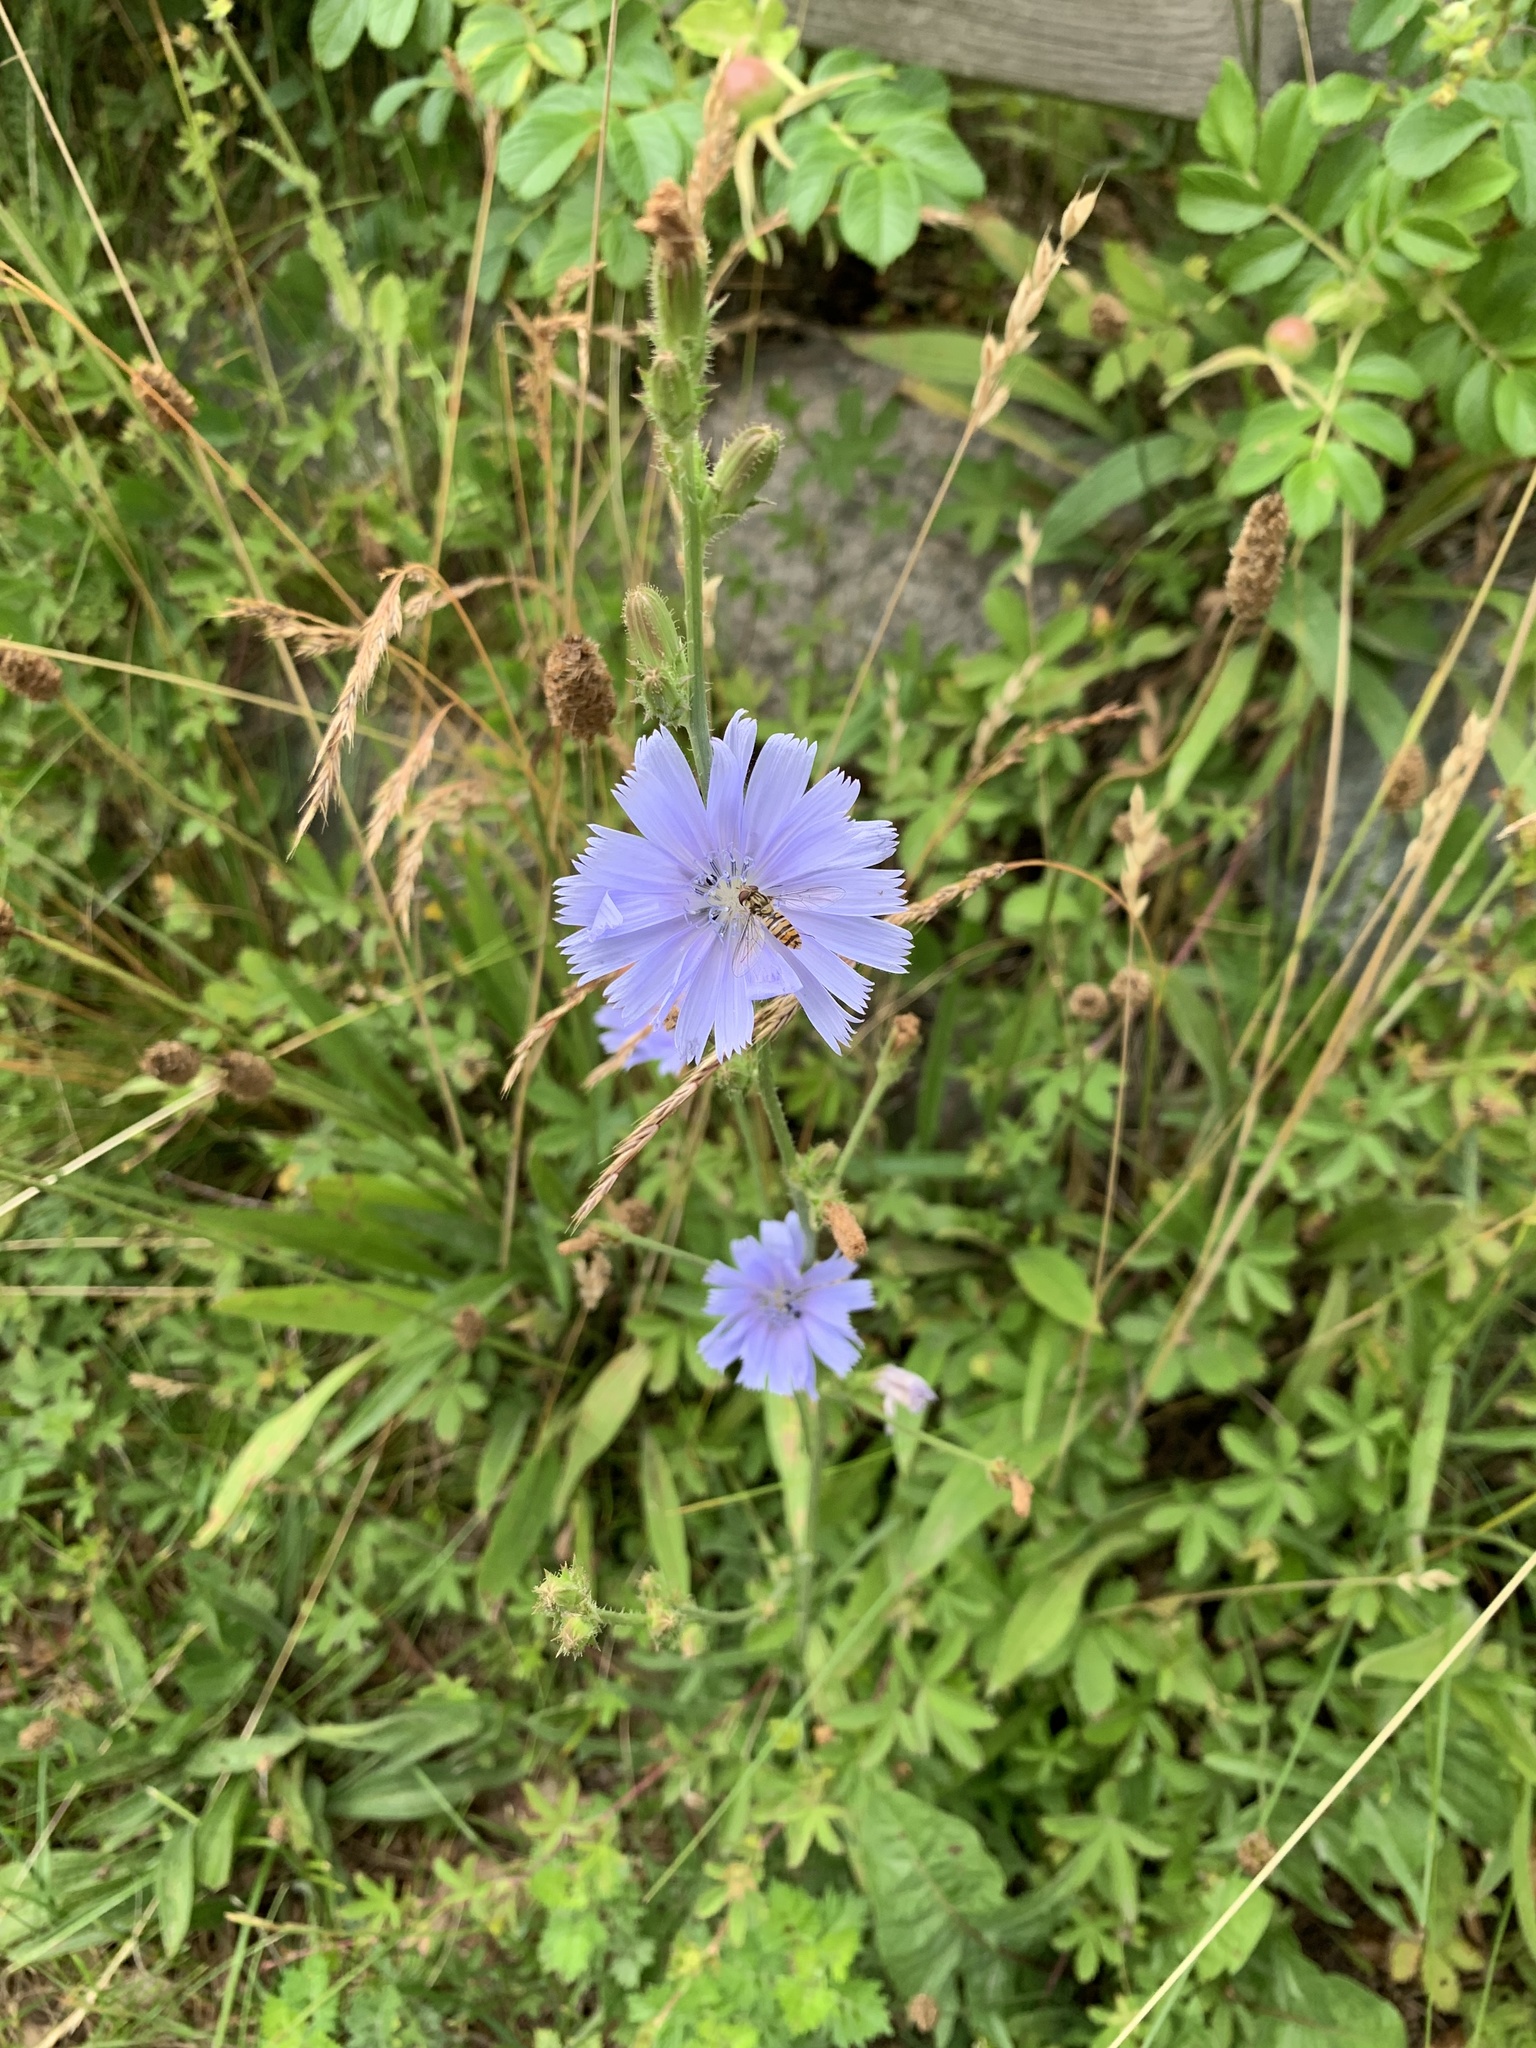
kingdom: Plantae
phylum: Tracheophyta
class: Magnoliopsida
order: Asterales
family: Asteraceae
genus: Cichorium
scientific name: Cichorium intybus
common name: Chicory
